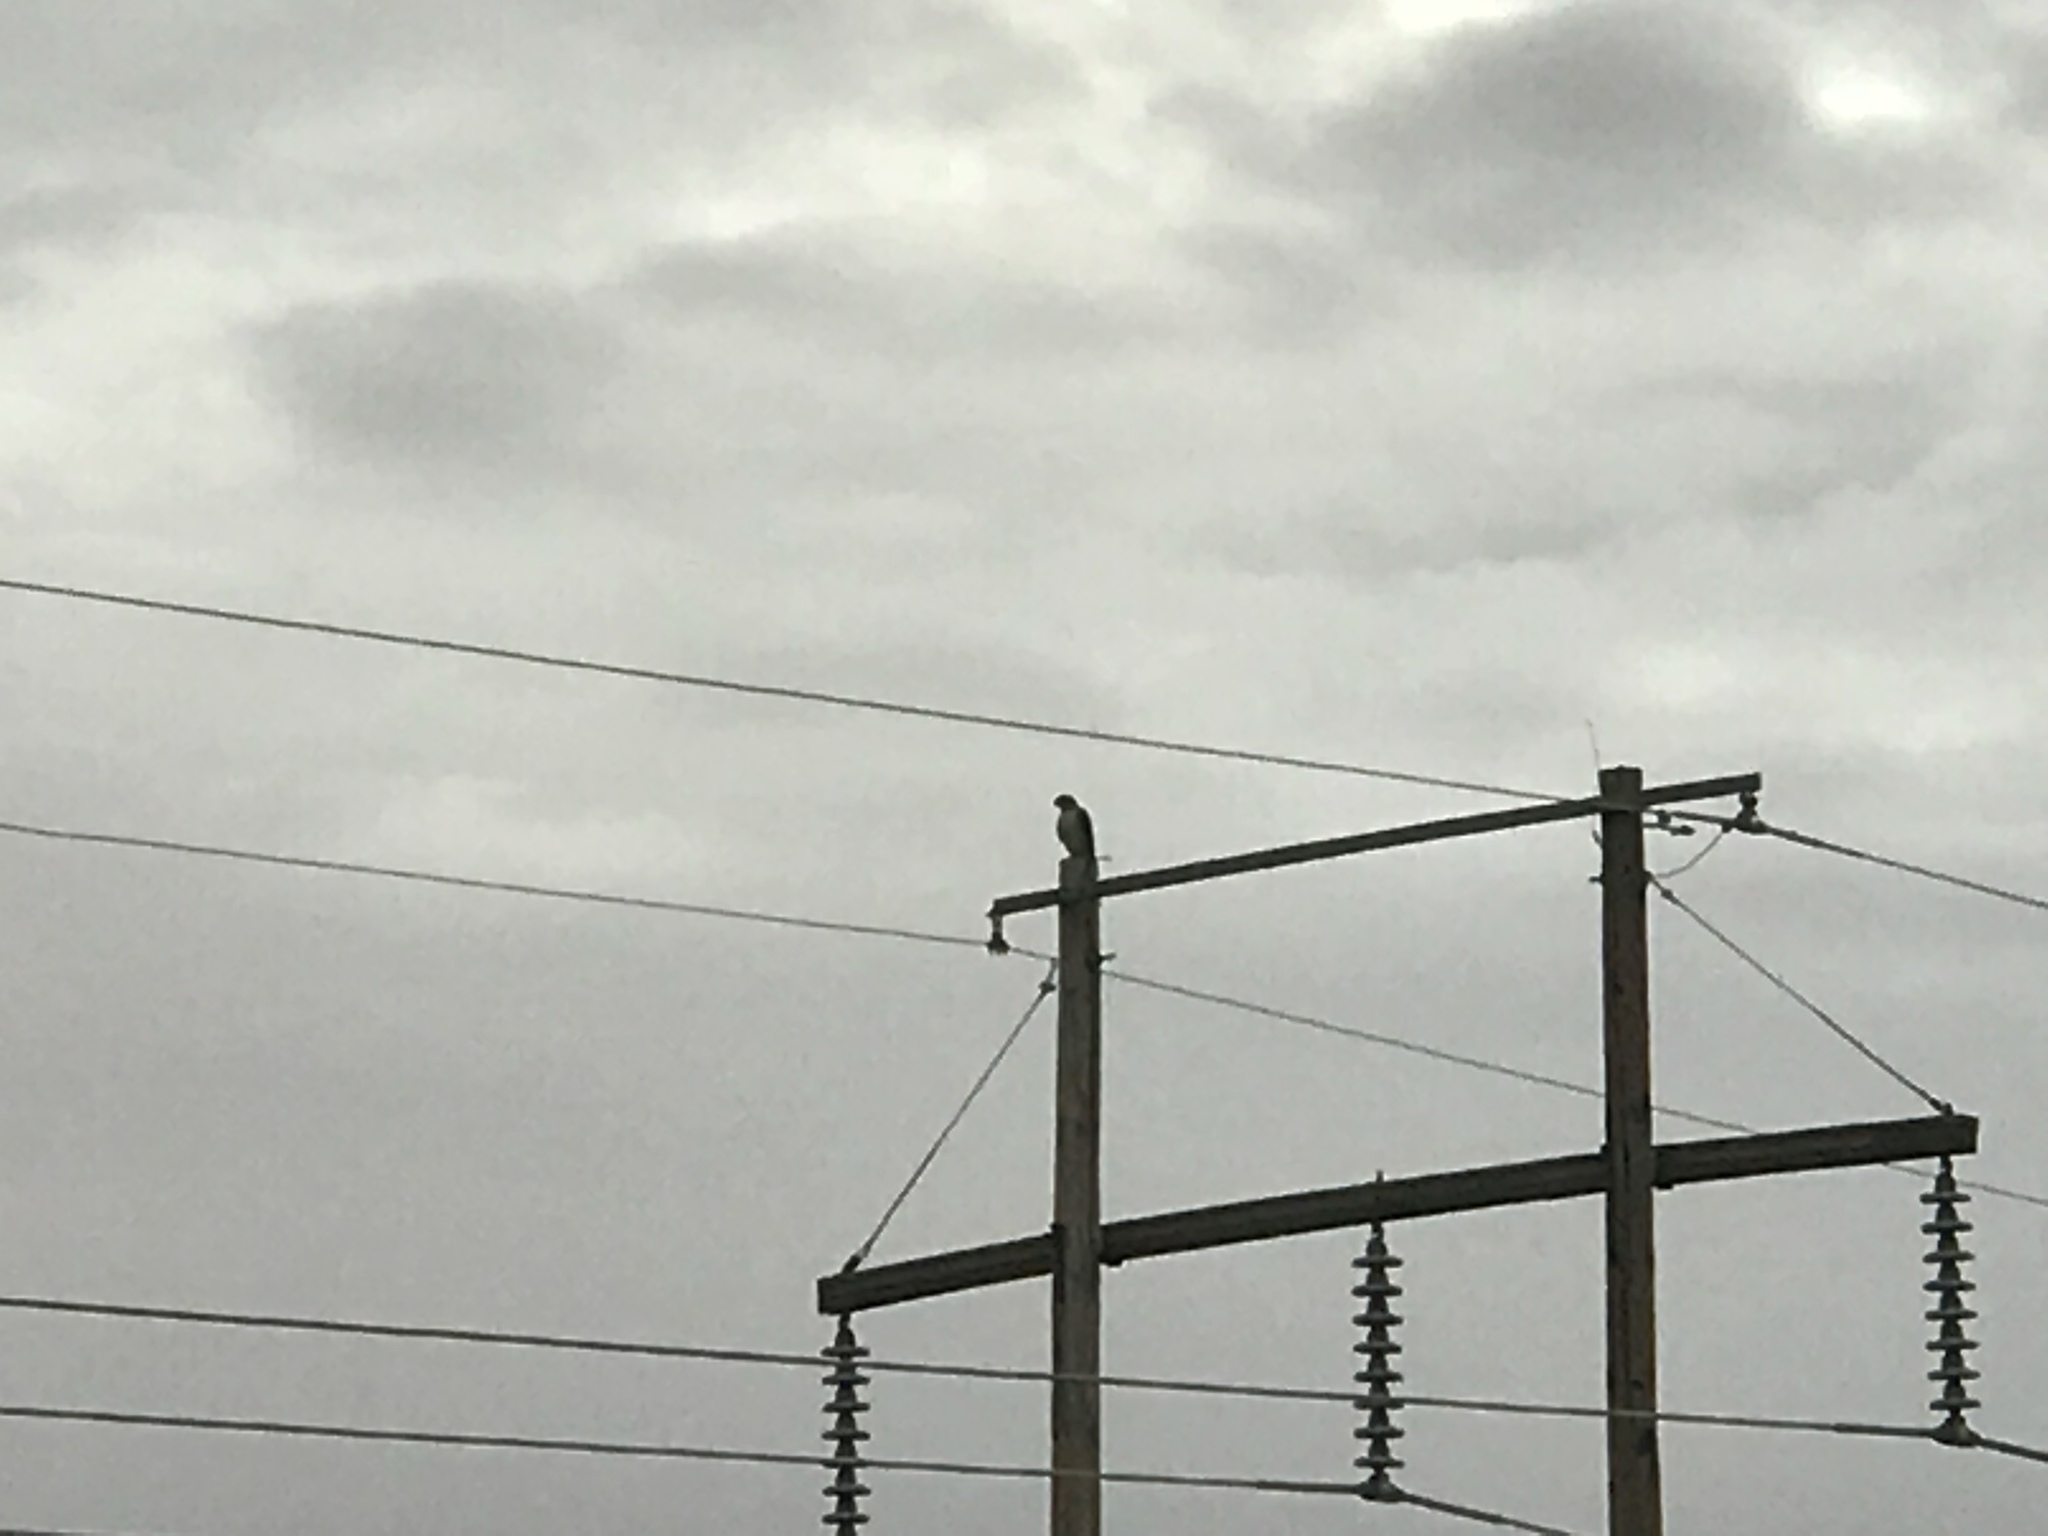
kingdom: Animalia
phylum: Chordata
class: Aves
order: Accipitriformes
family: Accipitridae
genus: Buteo
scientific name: Buteo jamaicensis
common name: Red-tailed hawk
